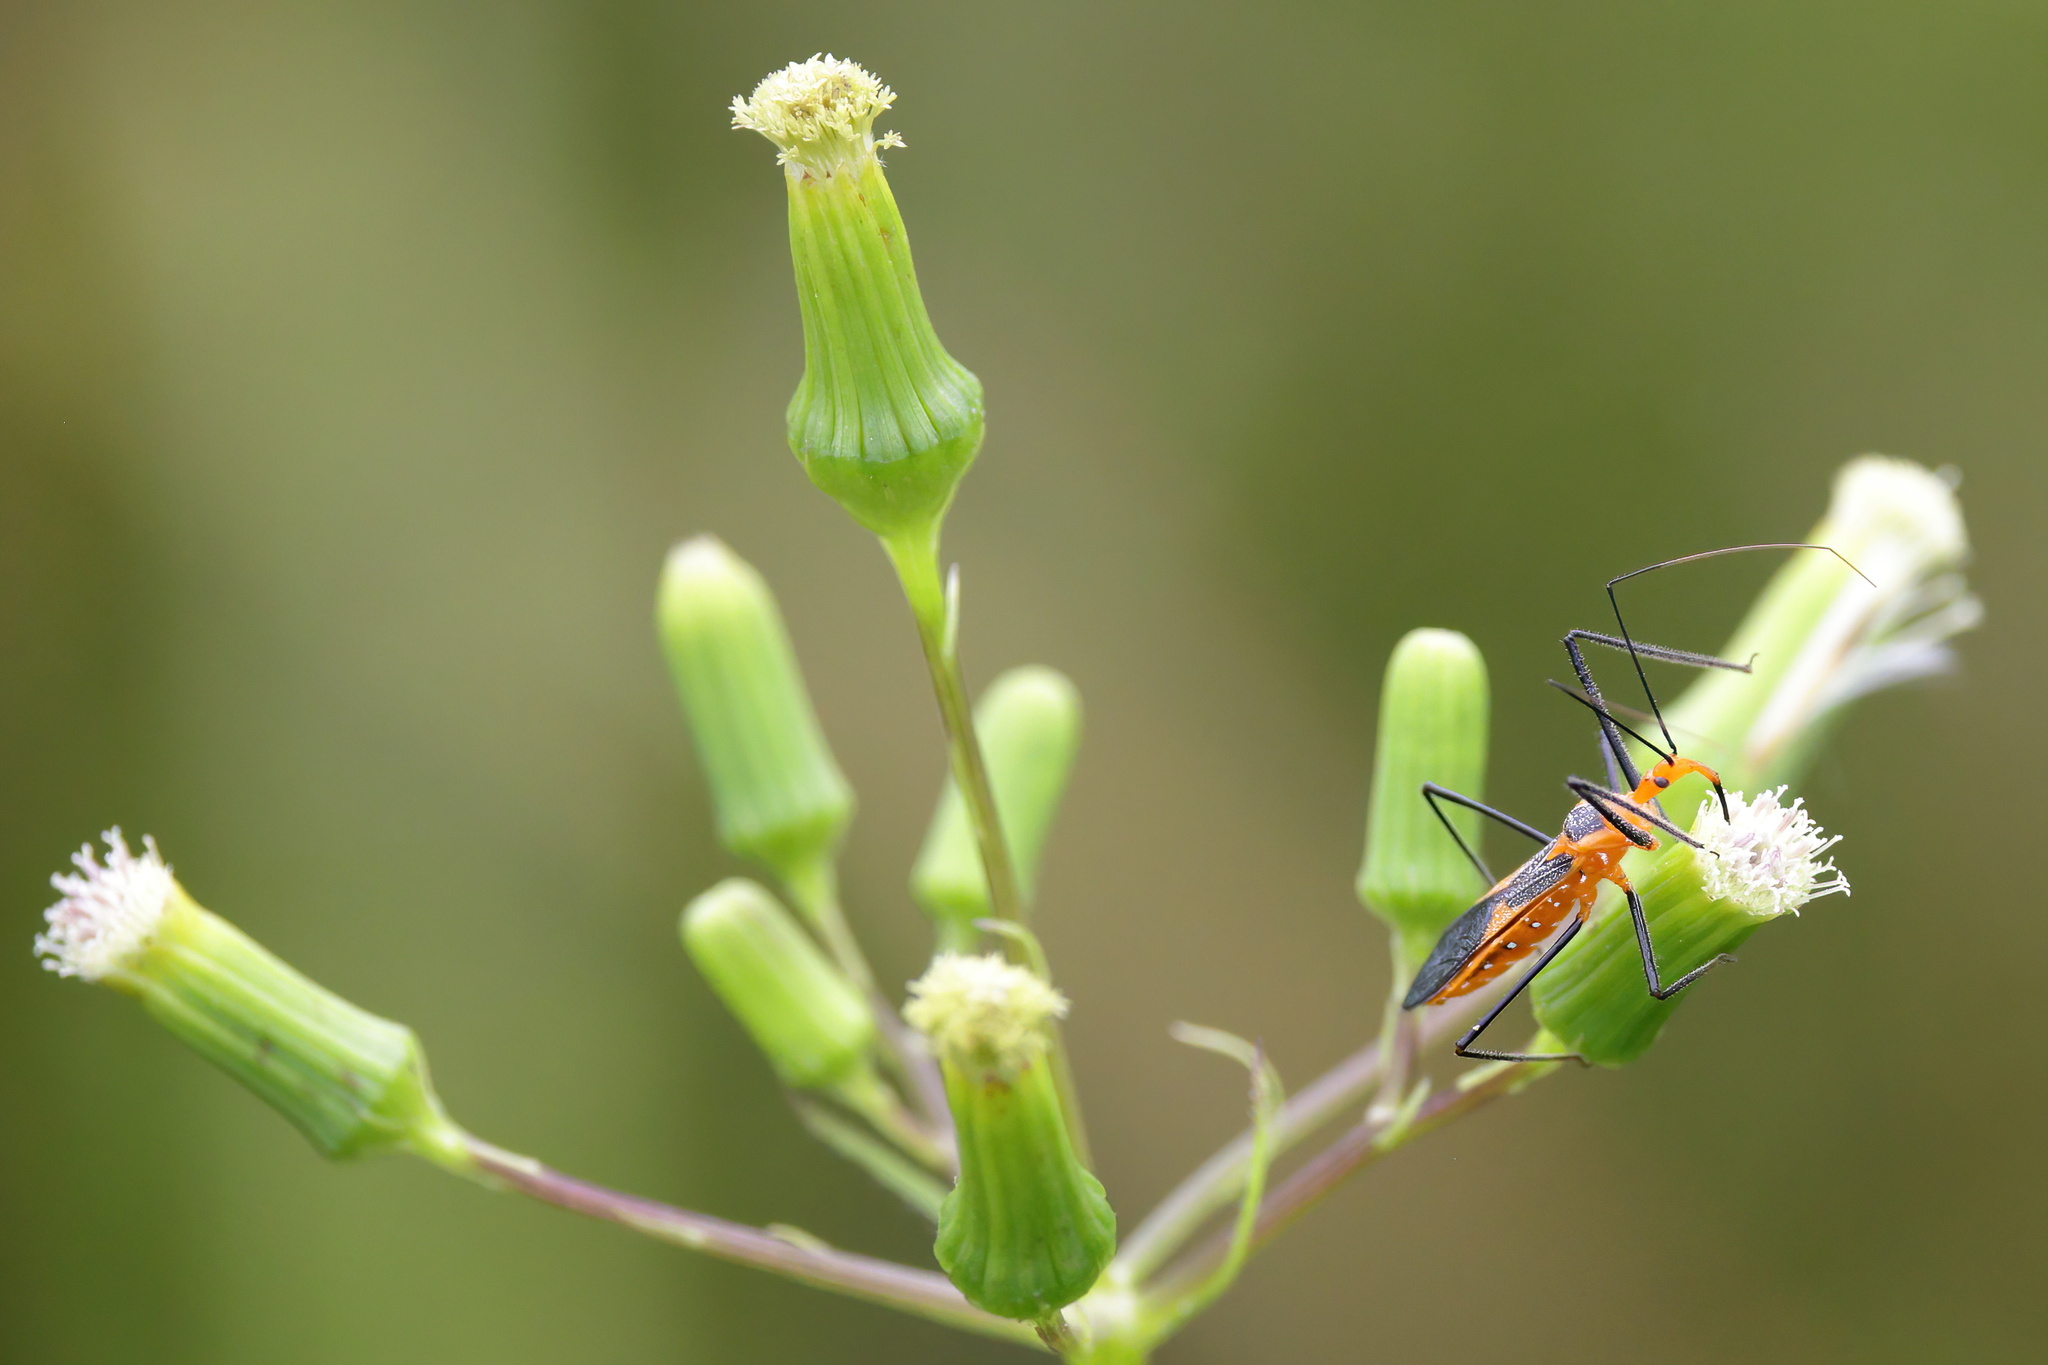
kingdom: Animalia
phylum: Arthropoda
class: Insecta
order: Hemiptera
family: Reduviidae
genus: Zelus
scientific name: Zelus longipes
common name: Milkweed assassin bug
